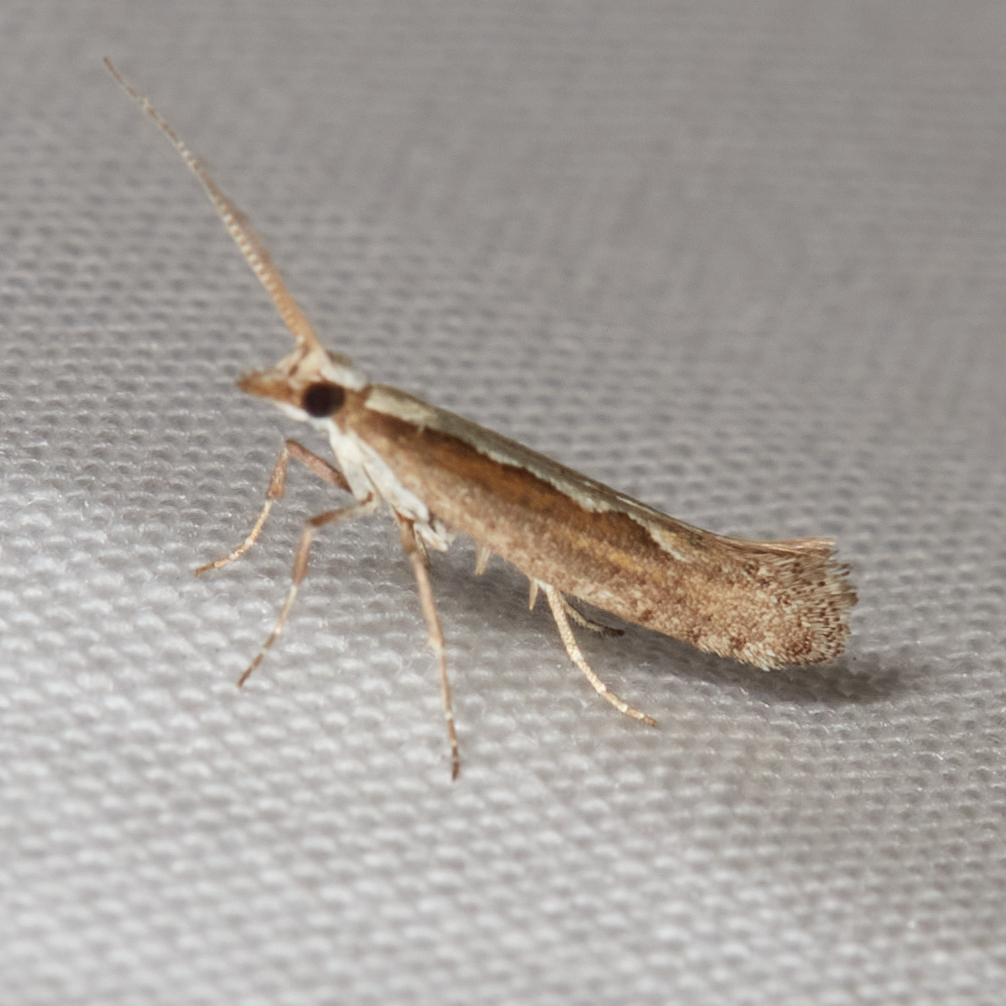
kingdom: Animalia
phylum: Arthropoda
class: Insecta
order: Lepidoptera
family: Plutellidae
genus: Plutella
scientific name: Plutella xylostella
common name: Diamond-back moth
